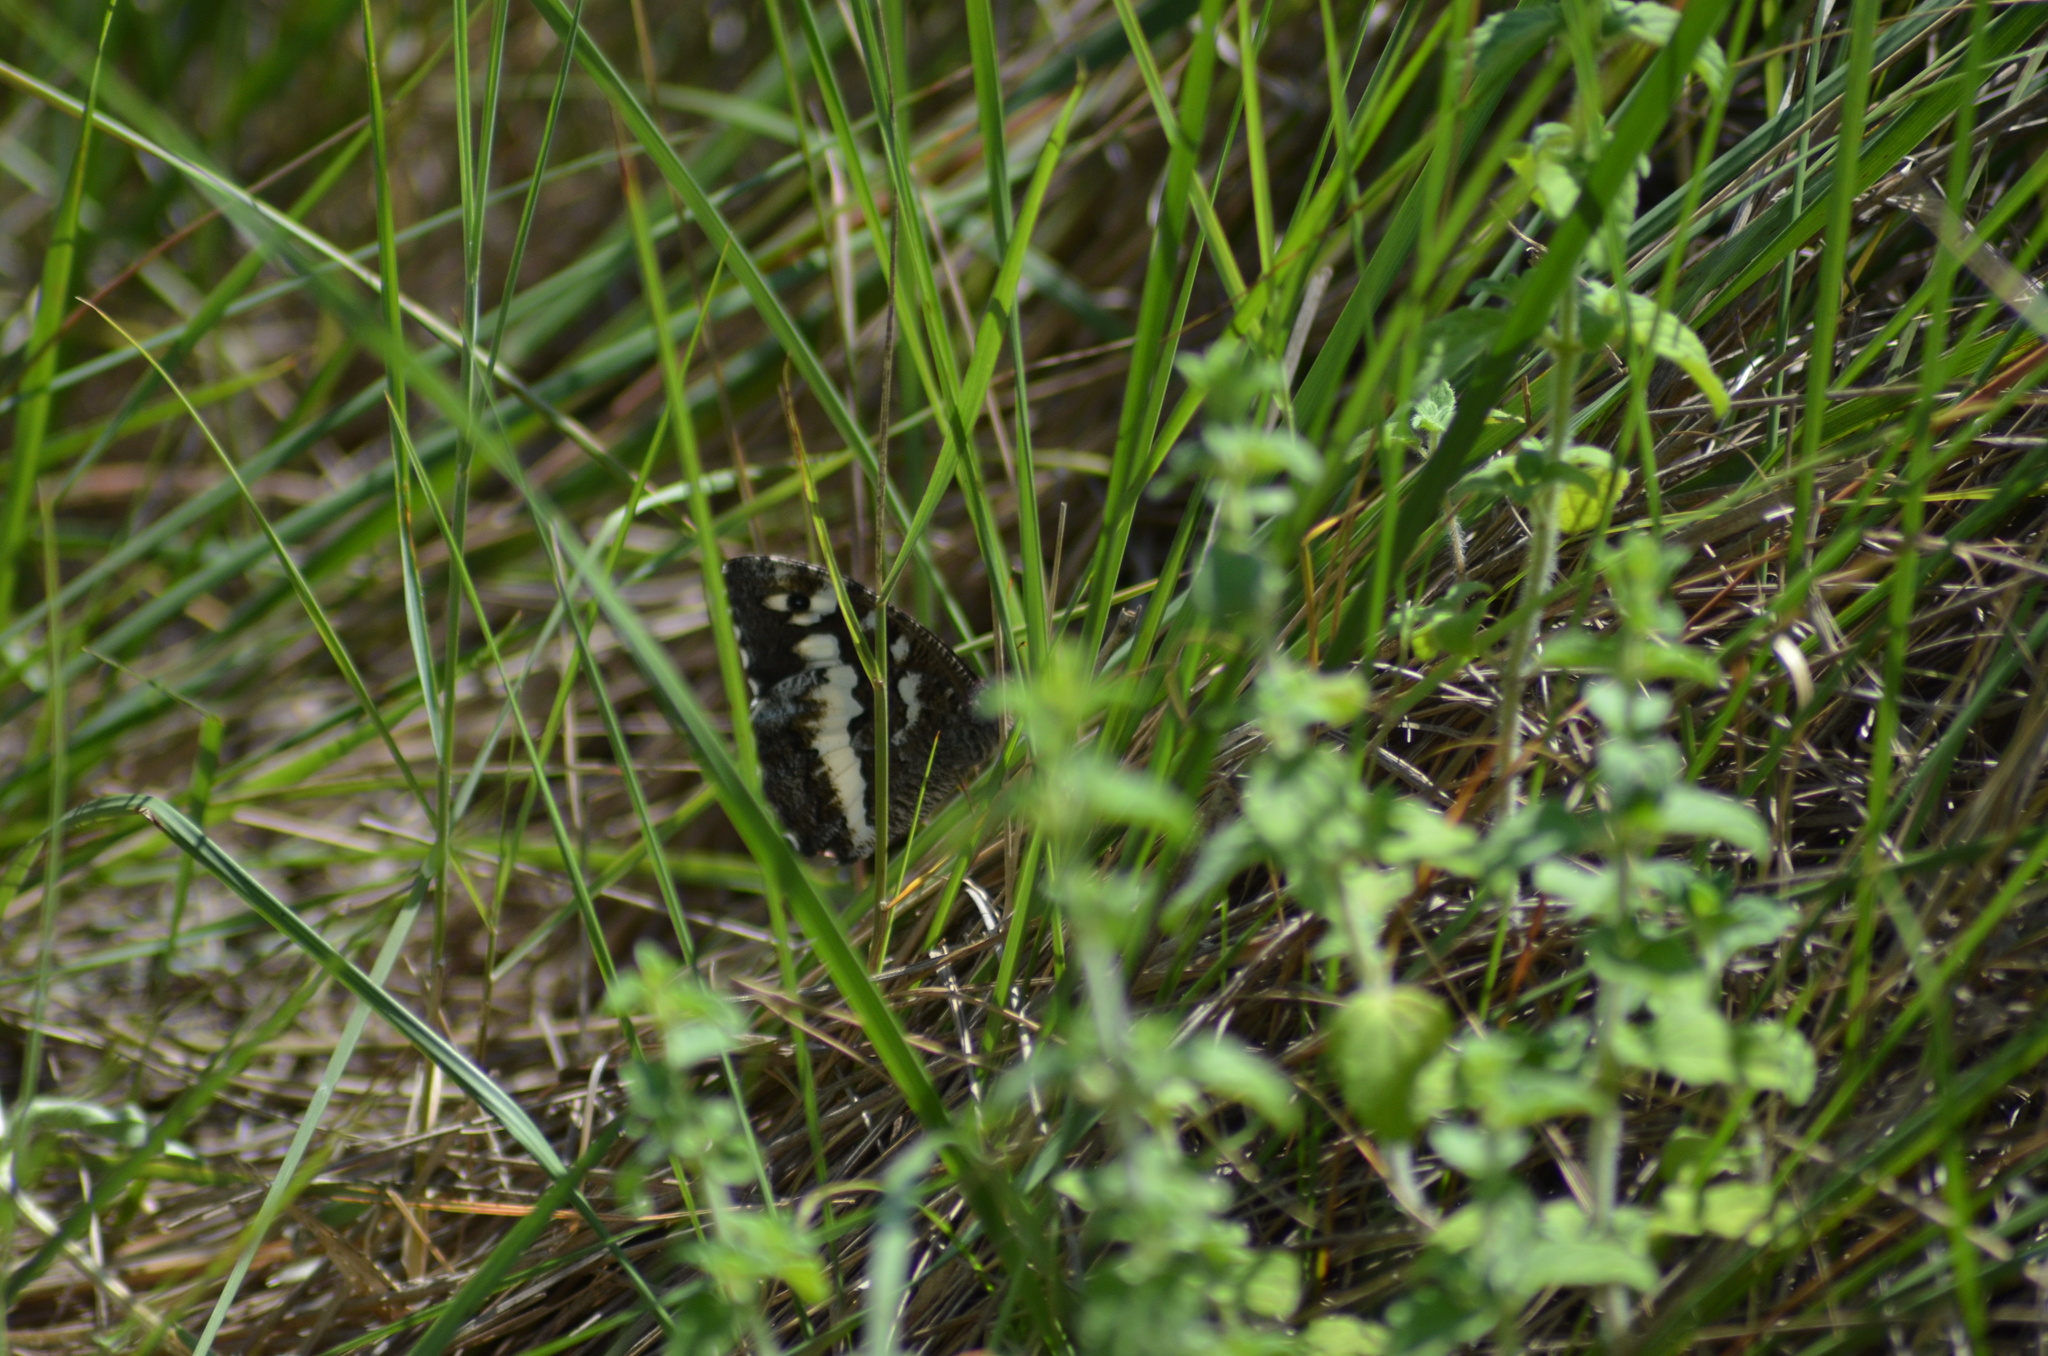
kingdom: Animalia
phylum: Arthropoda
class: Insecta
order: Lepidoptera
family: Lycaenidae
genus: Loweia
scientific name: Loweia tityrus
